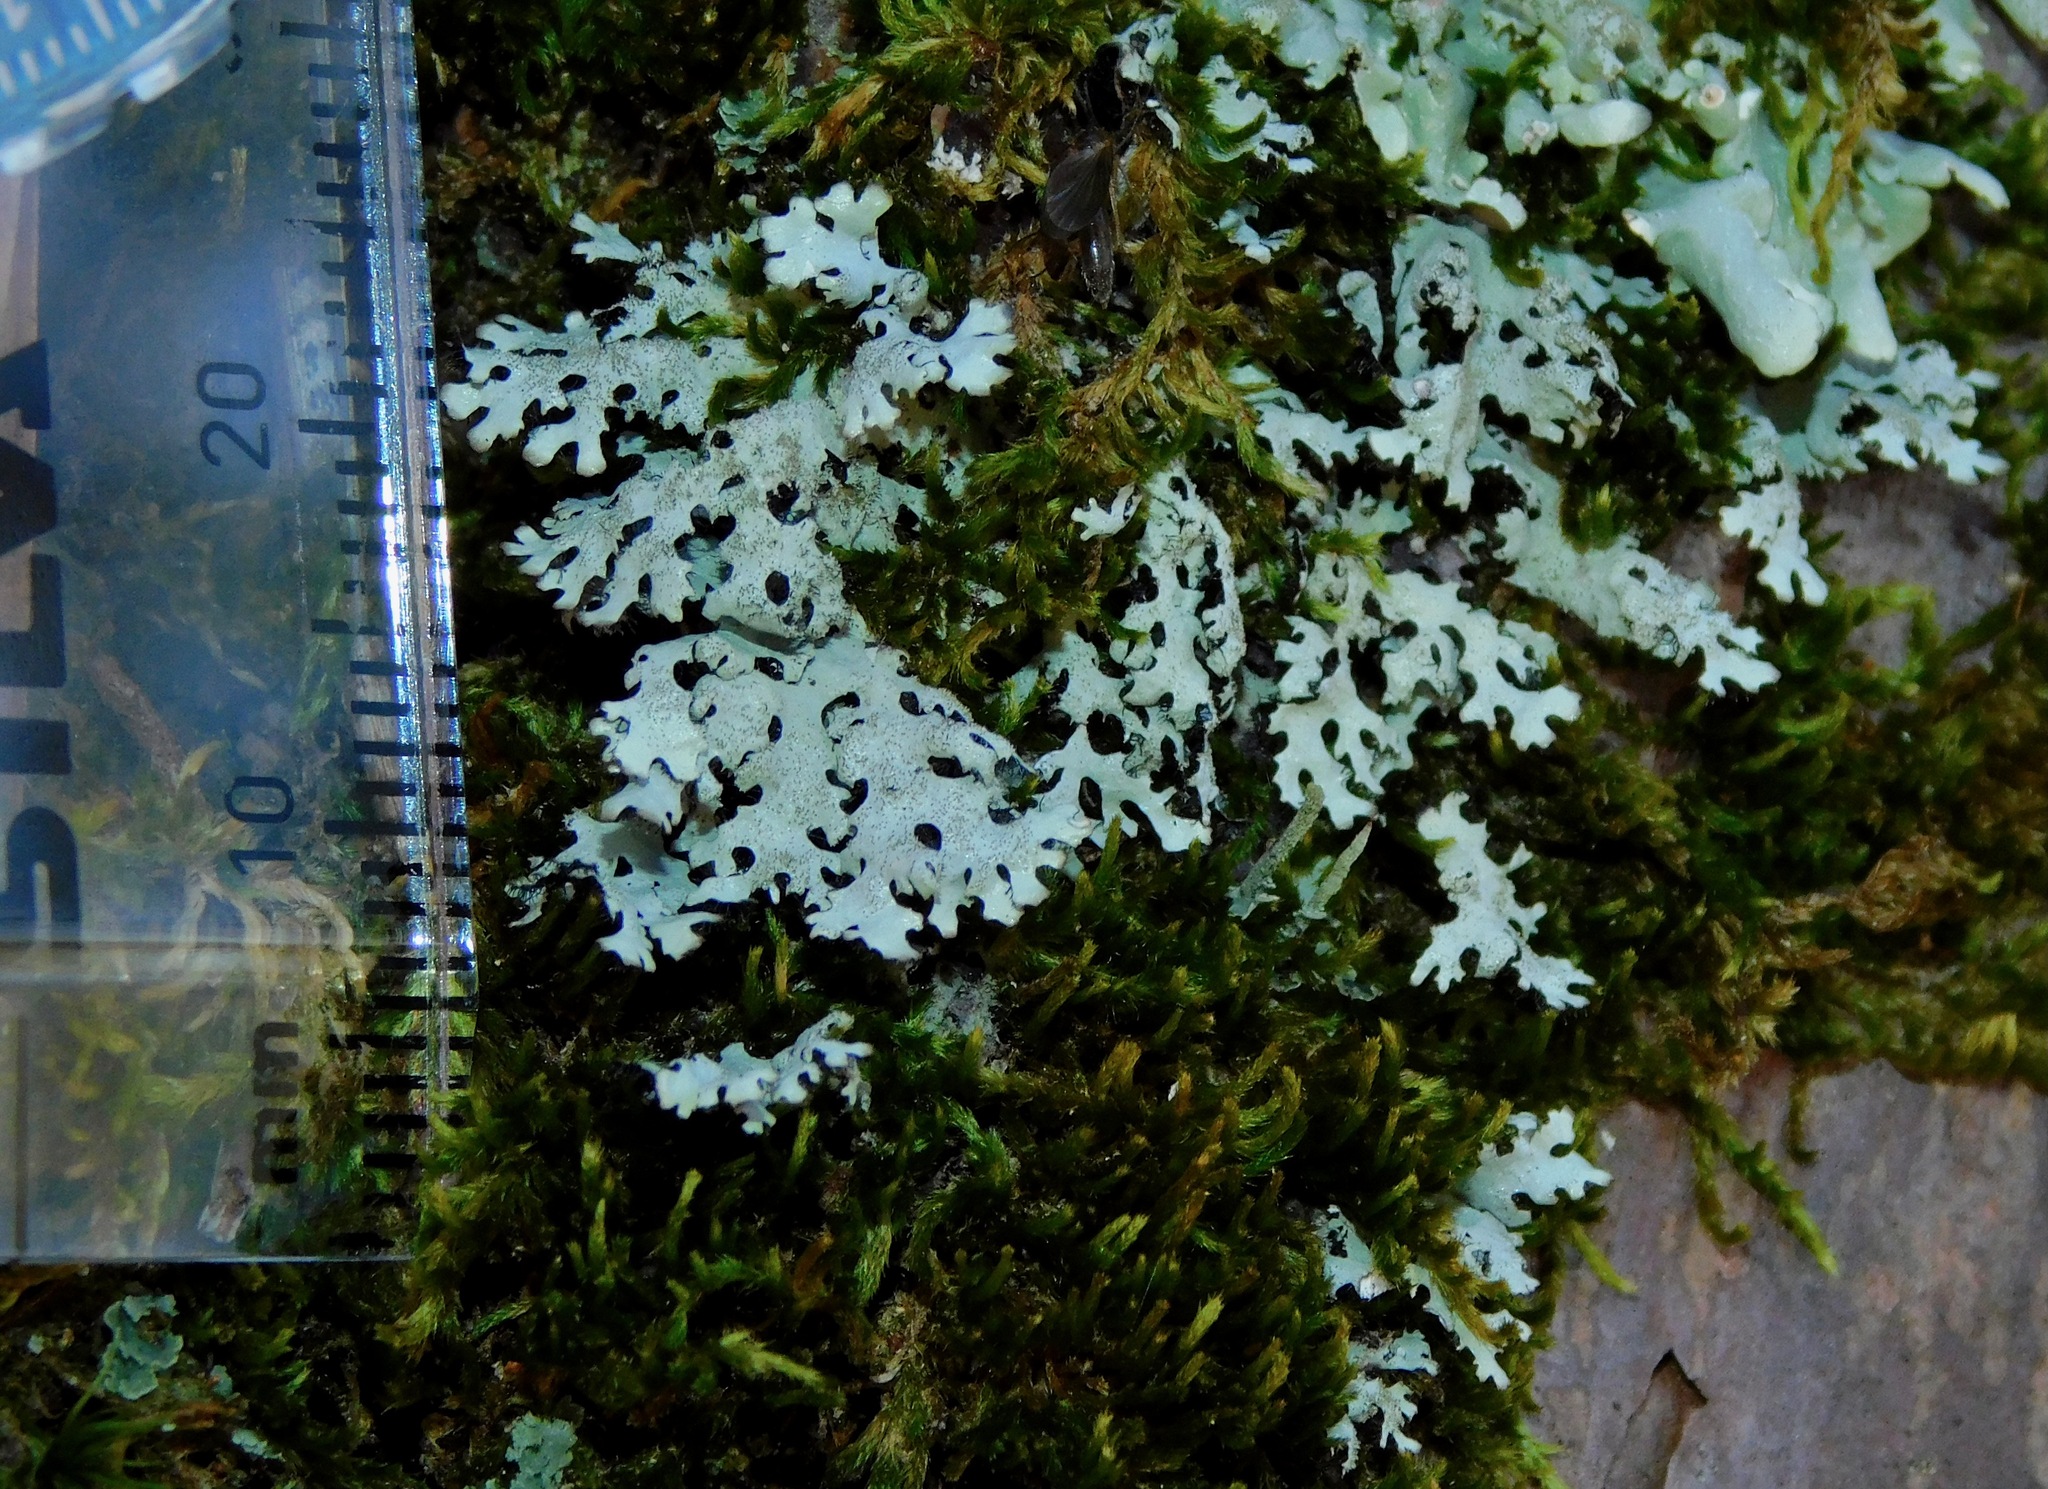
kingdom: Fungi
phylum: Ascomycota
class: Lecanoromycetes
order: Lecanorales
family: Parmeliaceae
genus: Hypotrachyna
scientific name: Hypotrachyna horrescens
